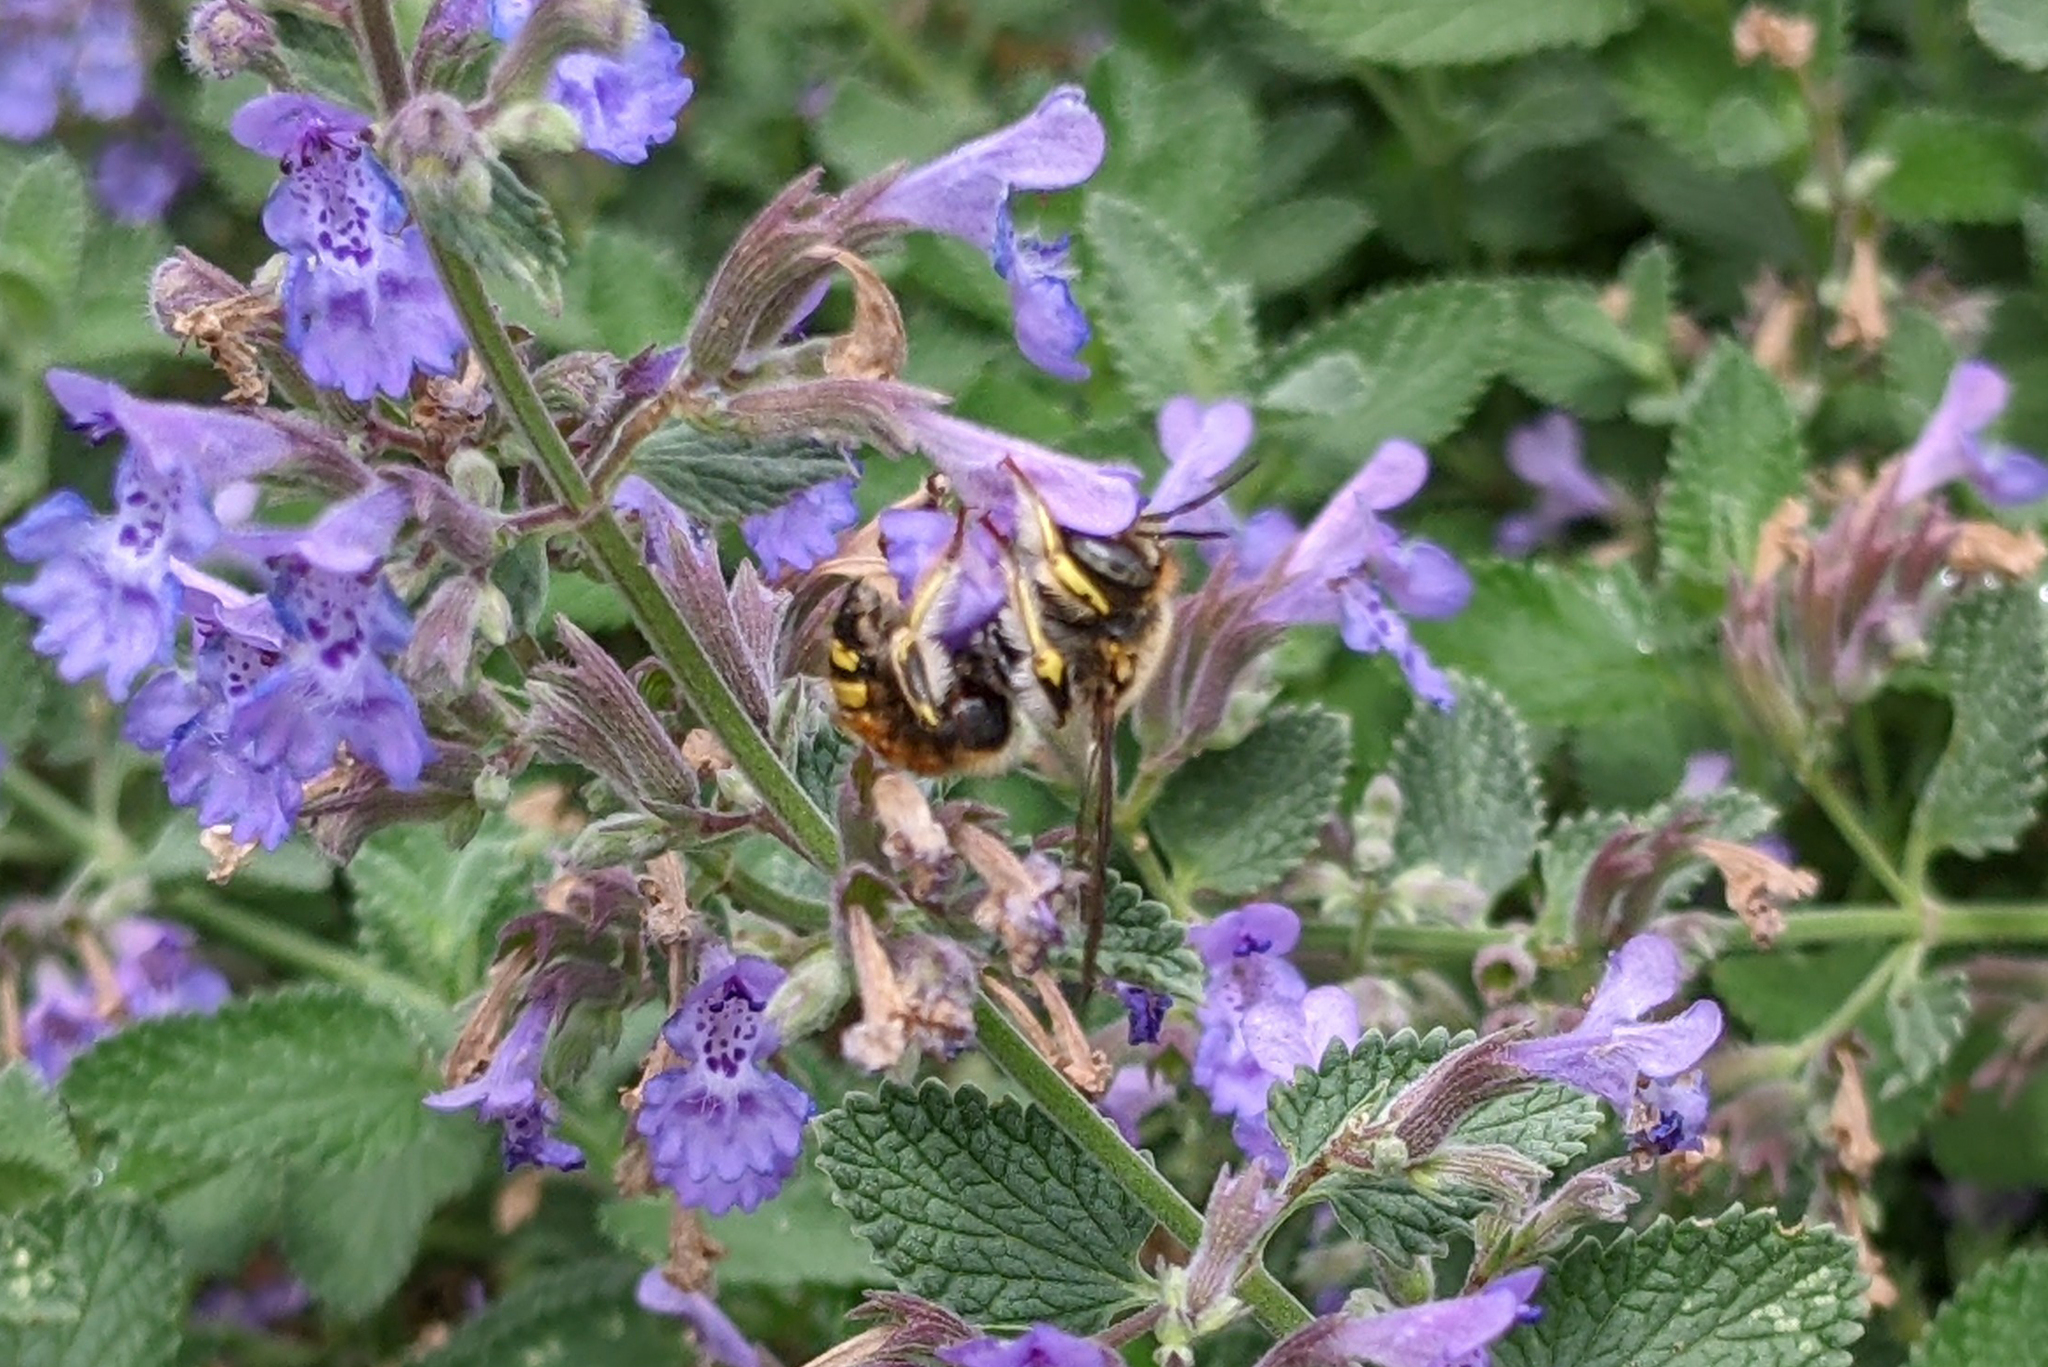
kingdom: Animalia
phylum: Arthropoda
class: Insecta
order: Hymenoptera
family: Megachilidae
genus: Anthidium
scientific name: Anthidium manicatum
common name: Wool carder bee
